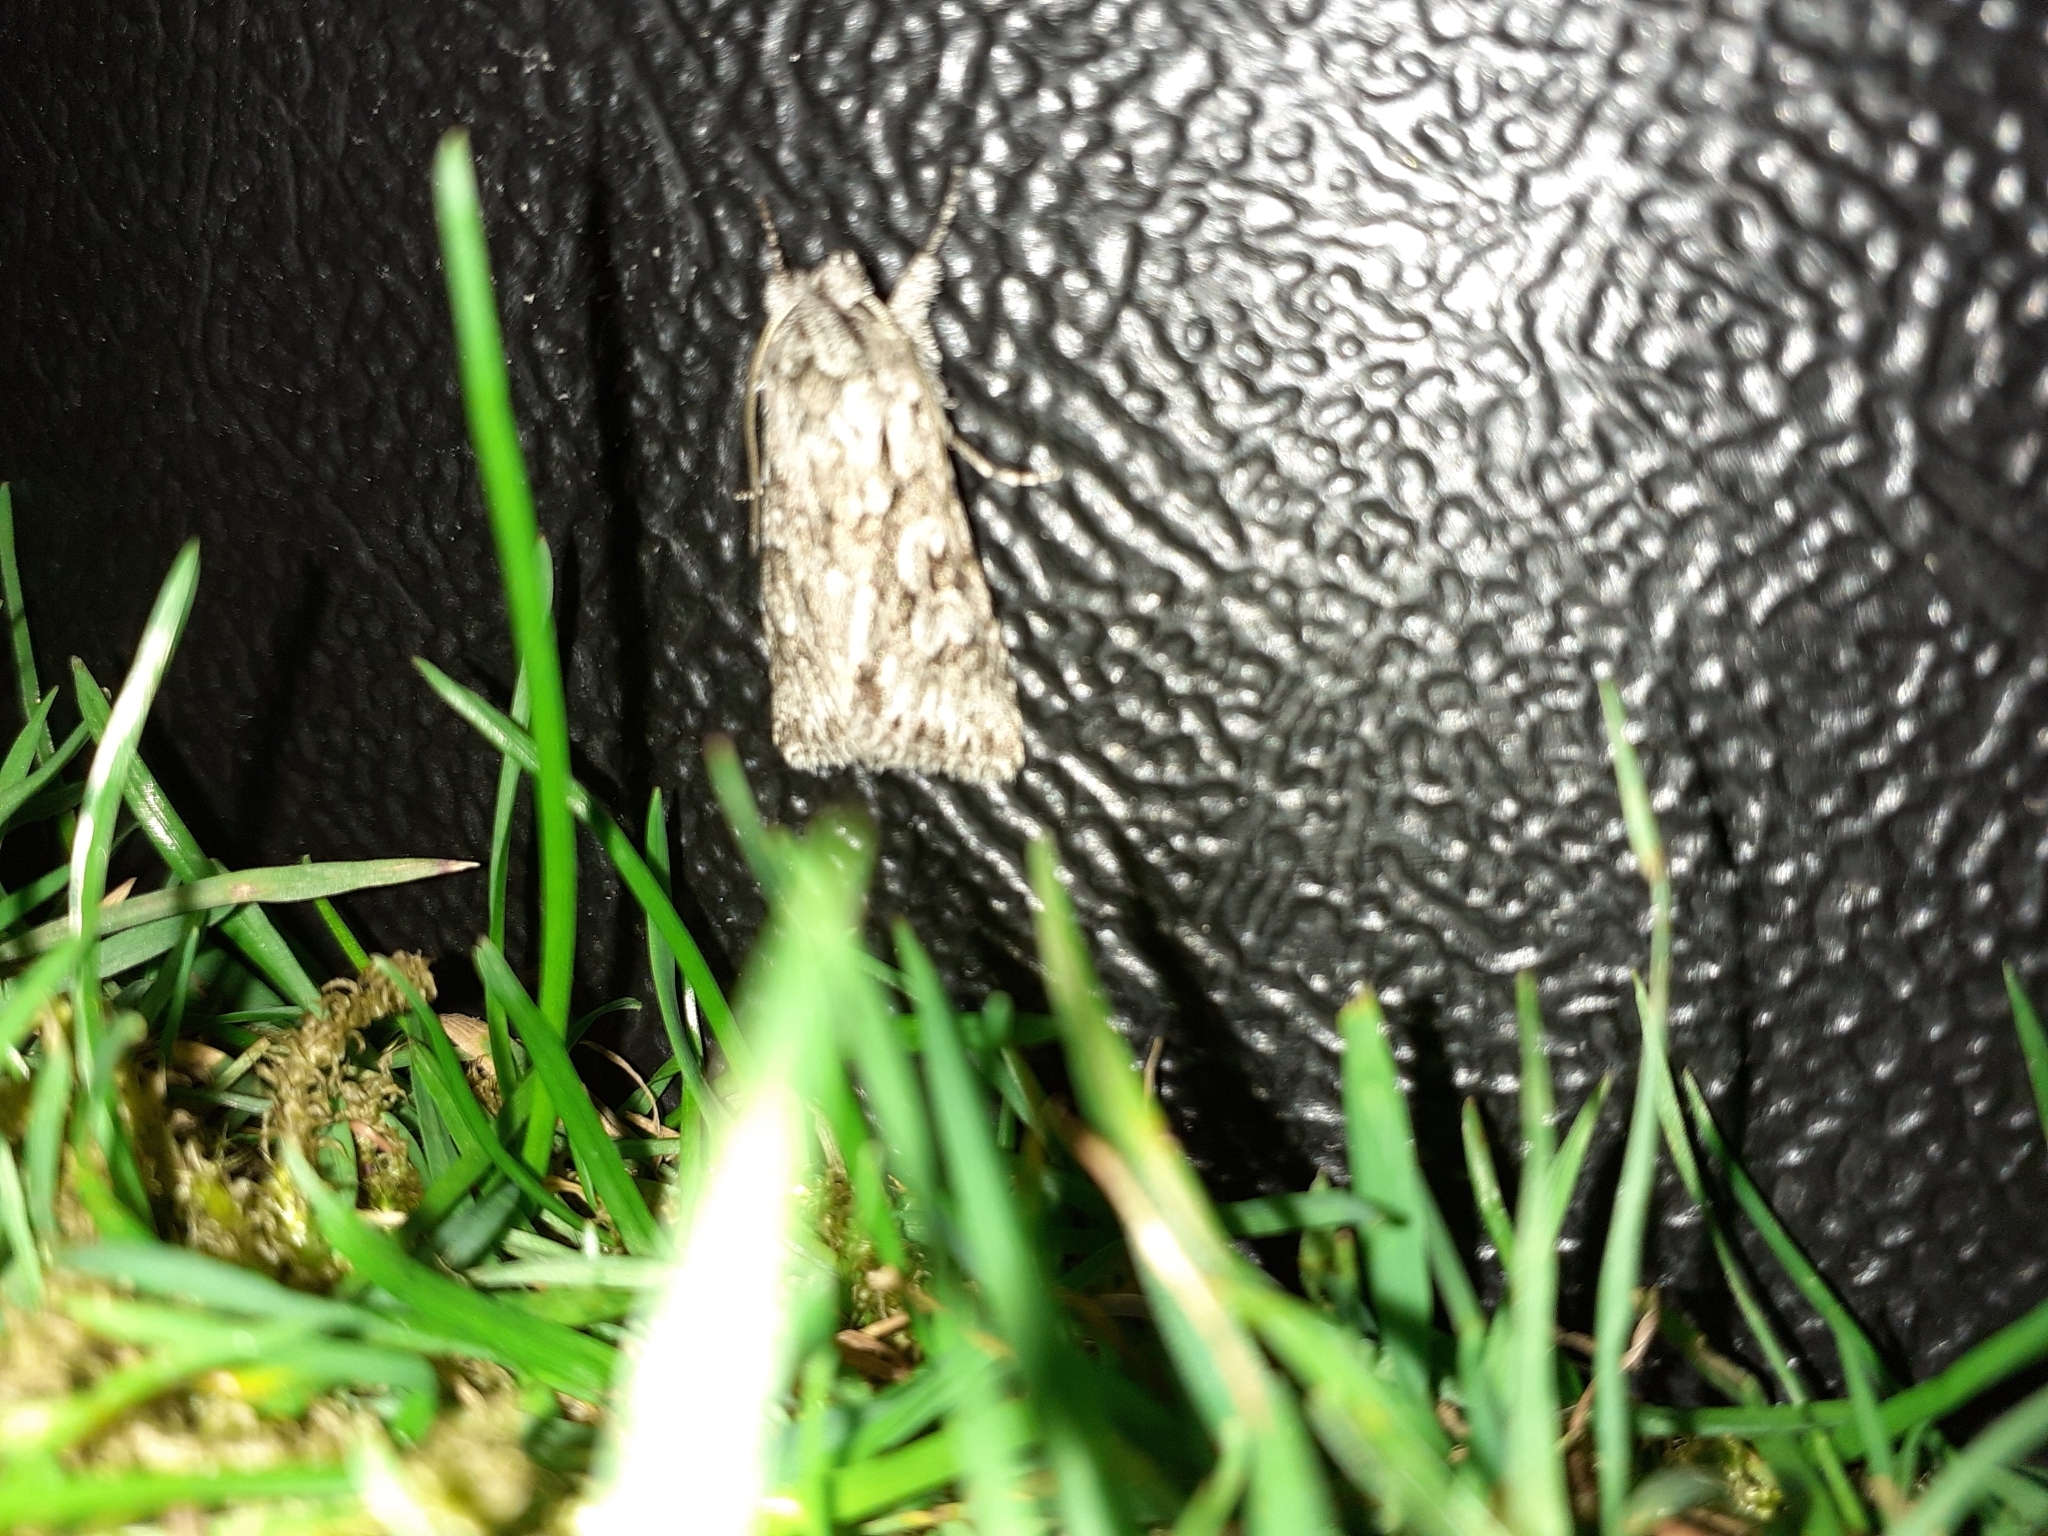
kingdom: Animalia
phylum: Arthropoda
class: Insecta
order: Lepidoptera
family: Noctuidae
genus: Xylocampa
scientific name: Xylocampa areola
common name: Early grey
